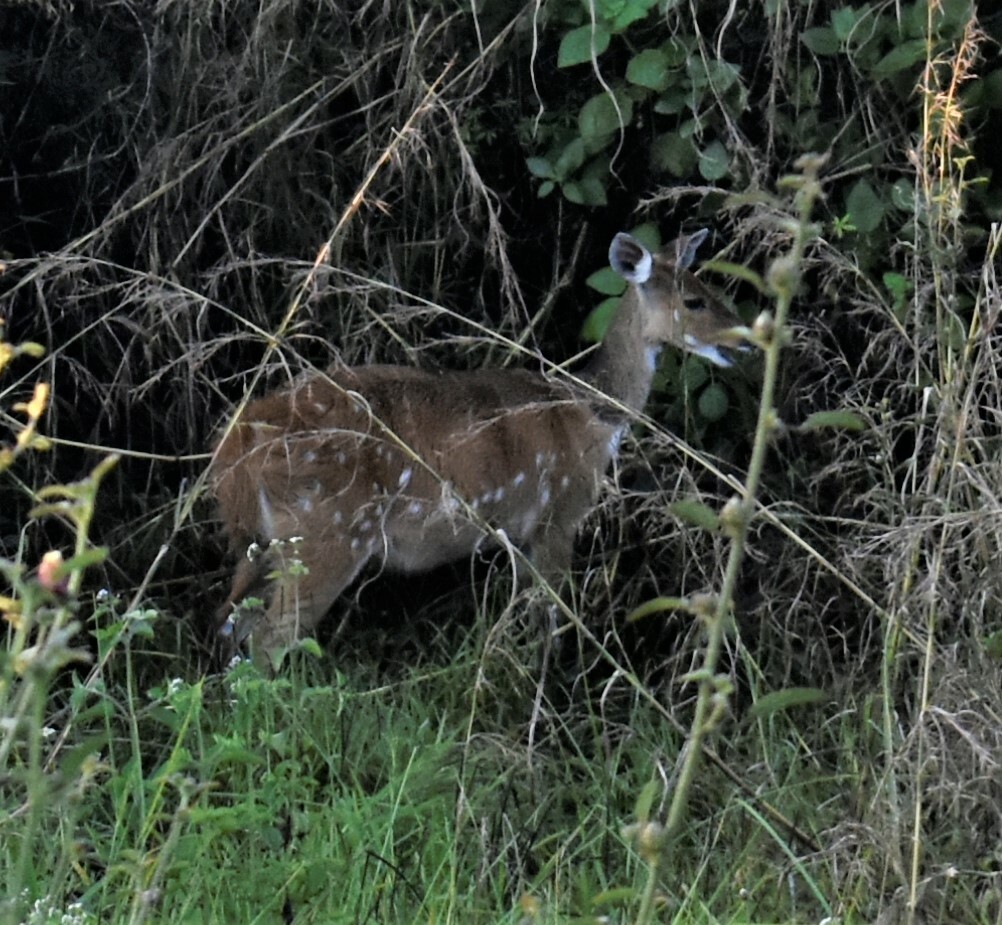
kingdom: Animalia
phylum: Chordata
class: Mammalia
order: Artiodactyla
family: Bovidae
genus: Tragelaphus
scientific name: Tragelaphus scriptus
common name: Bushbuck
